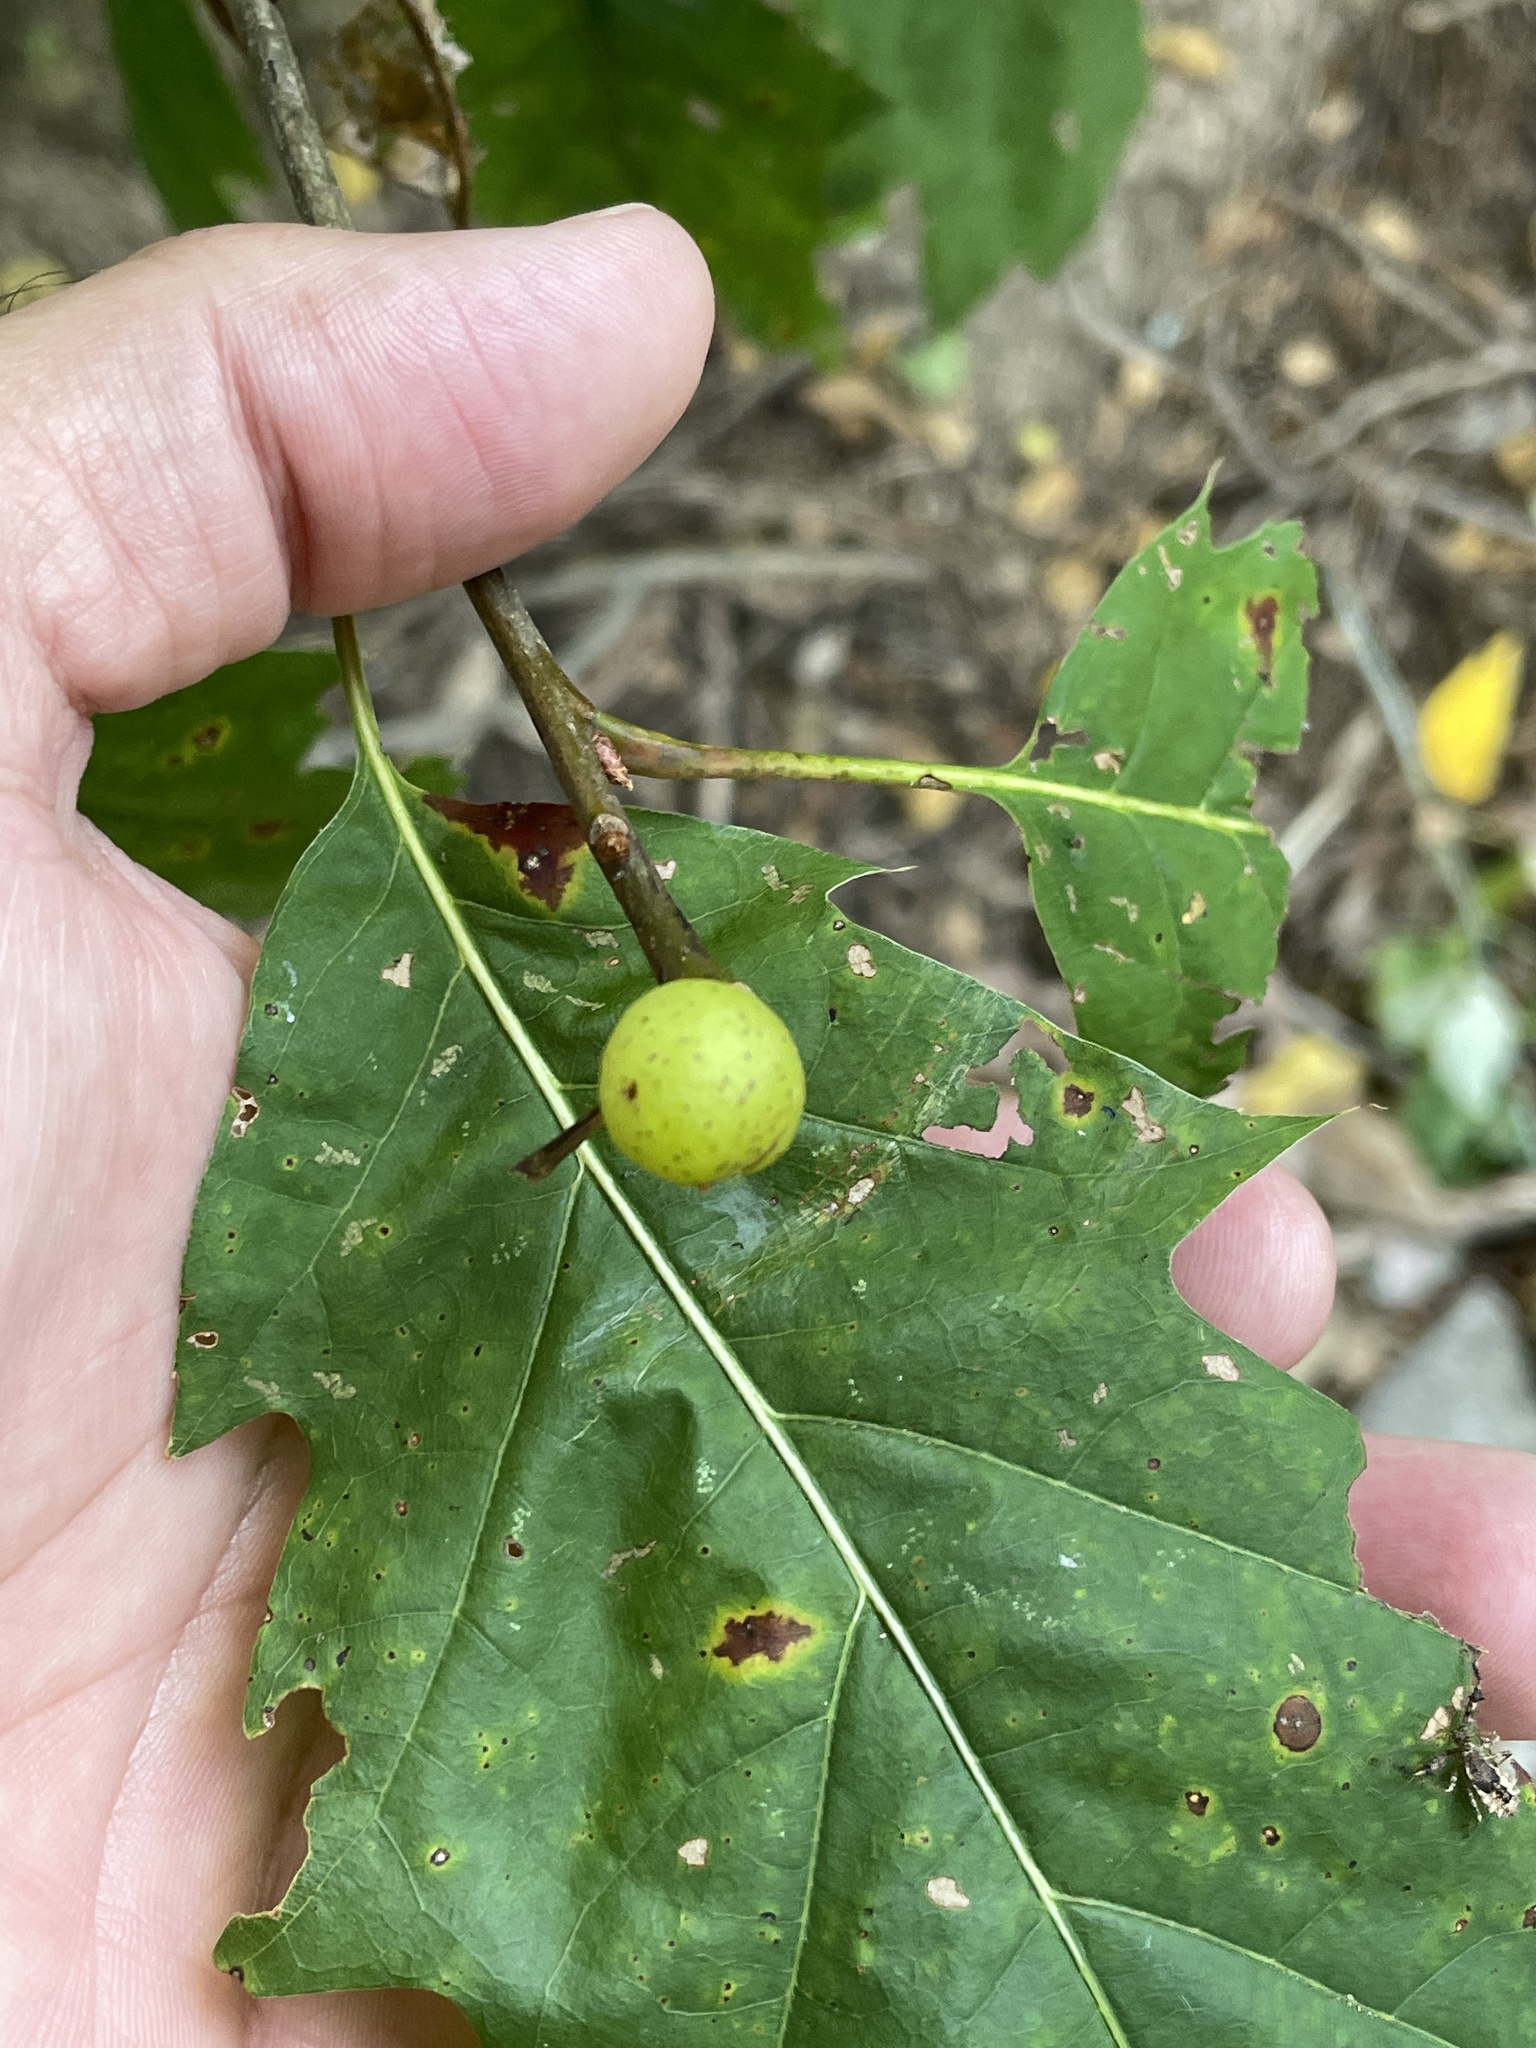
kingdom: Animalia
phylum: Arthropoda
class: Insecta
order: Hymenoptera
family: Cynipidae
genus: Amphibolips
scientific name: Amphibolips
